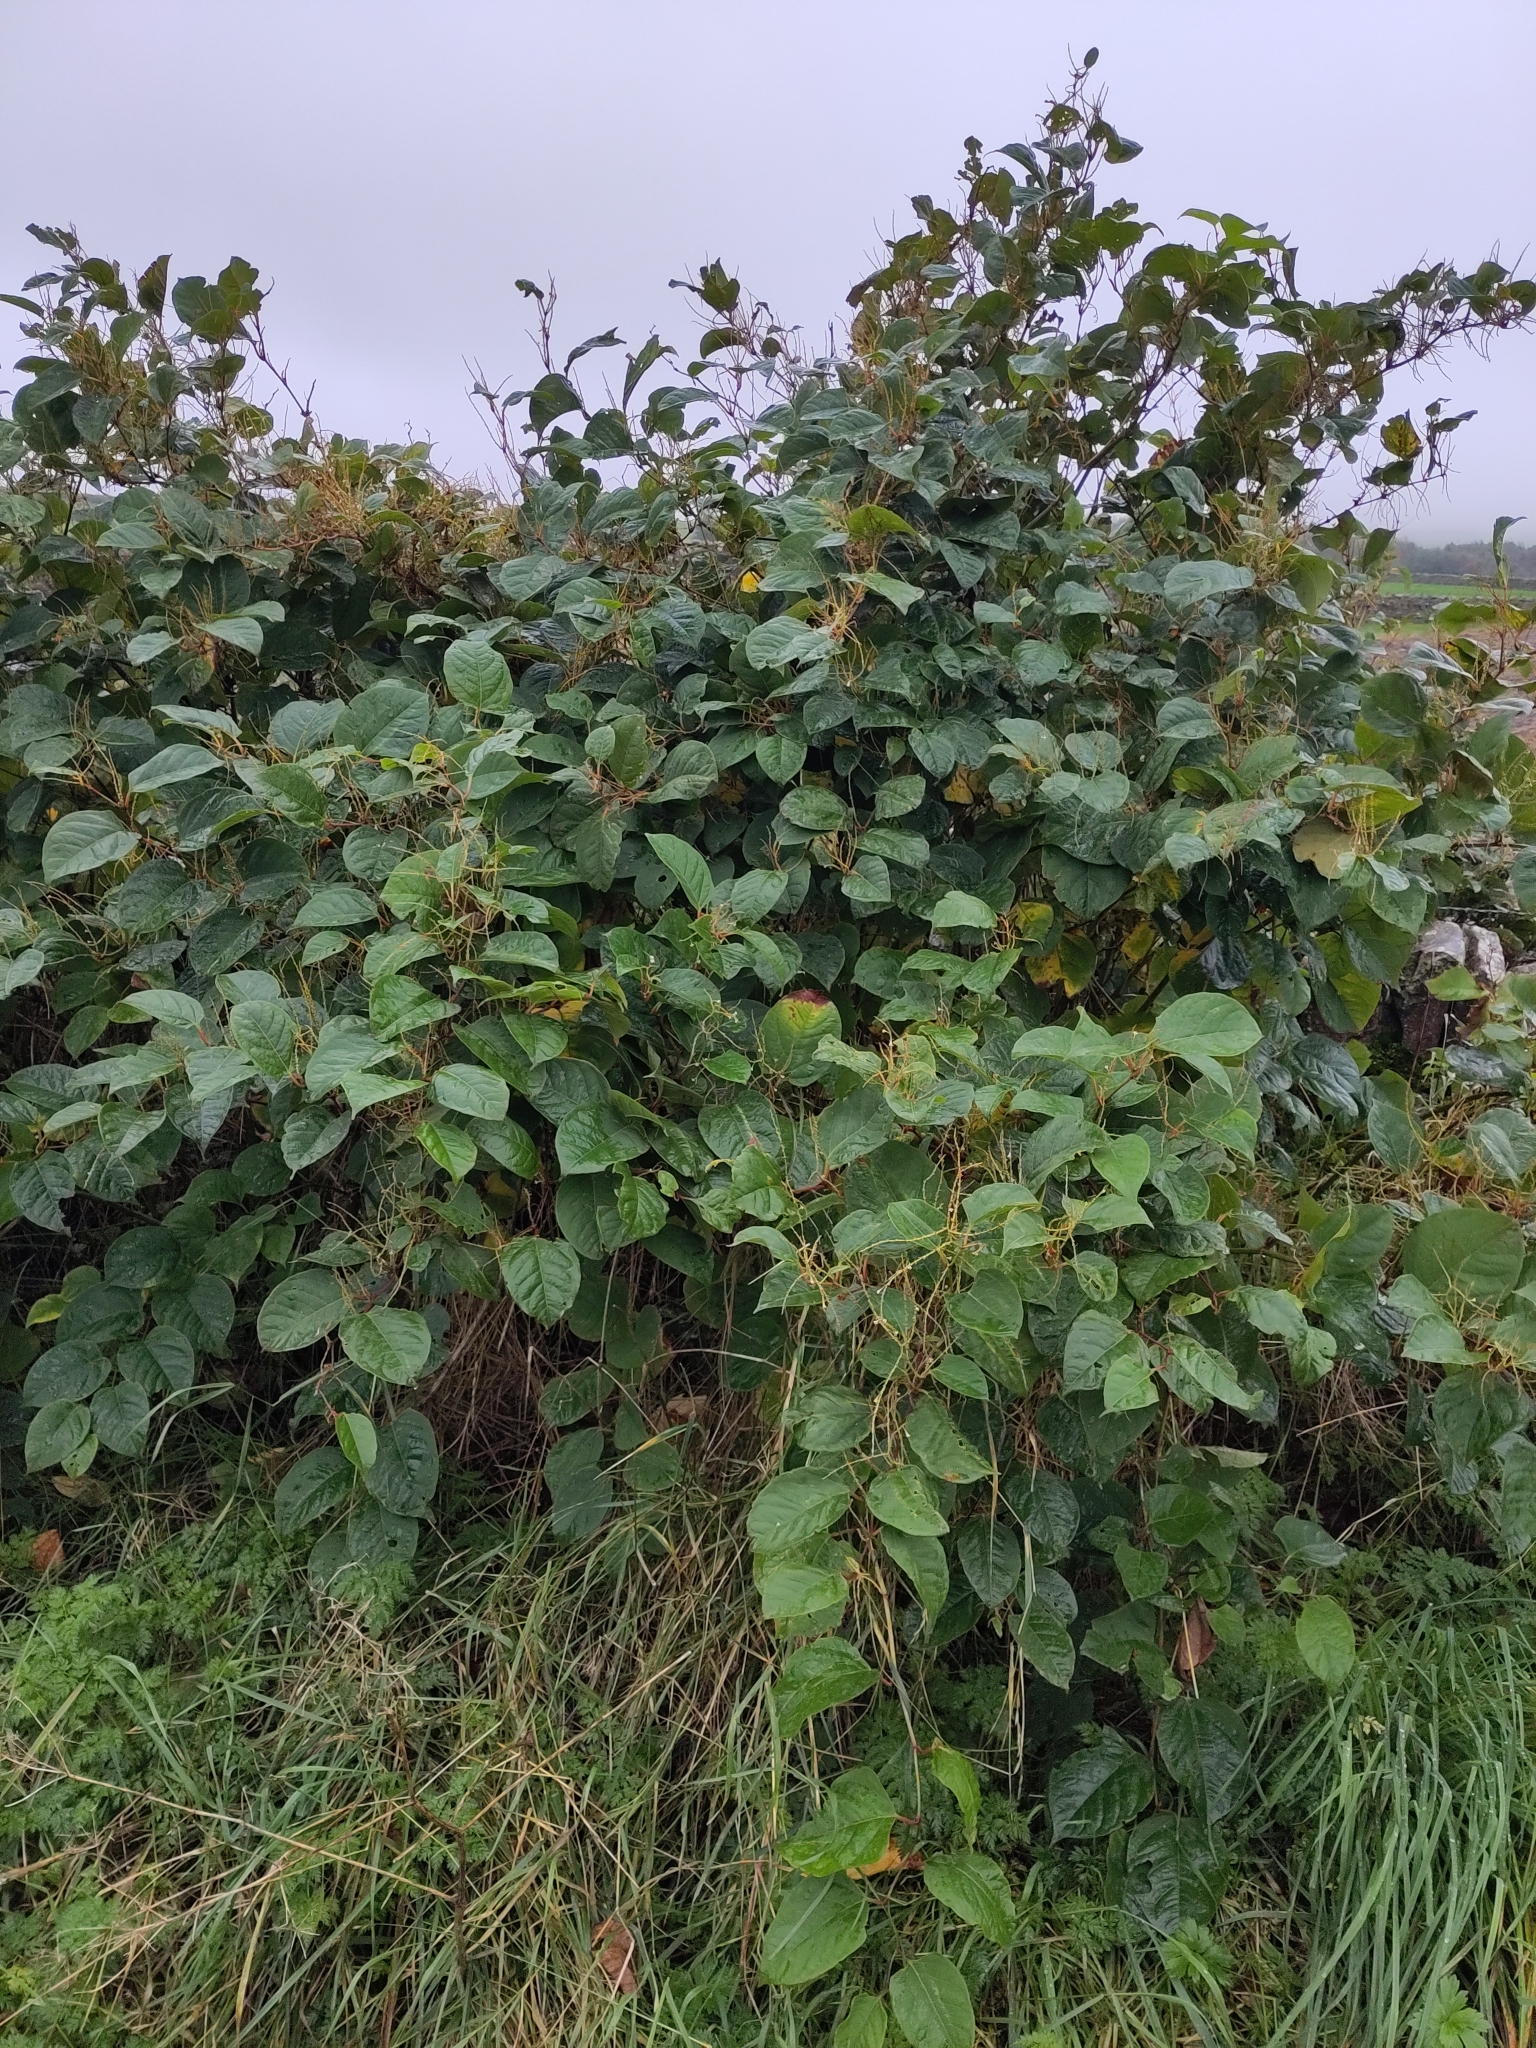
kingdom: Plantae
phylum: Tracheophyta
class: Magnoliopsida
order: Caryophyllales
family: Polygonaceae
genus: Reynoutria
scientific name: Reynoutria japonica
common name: Japanese knotweed
